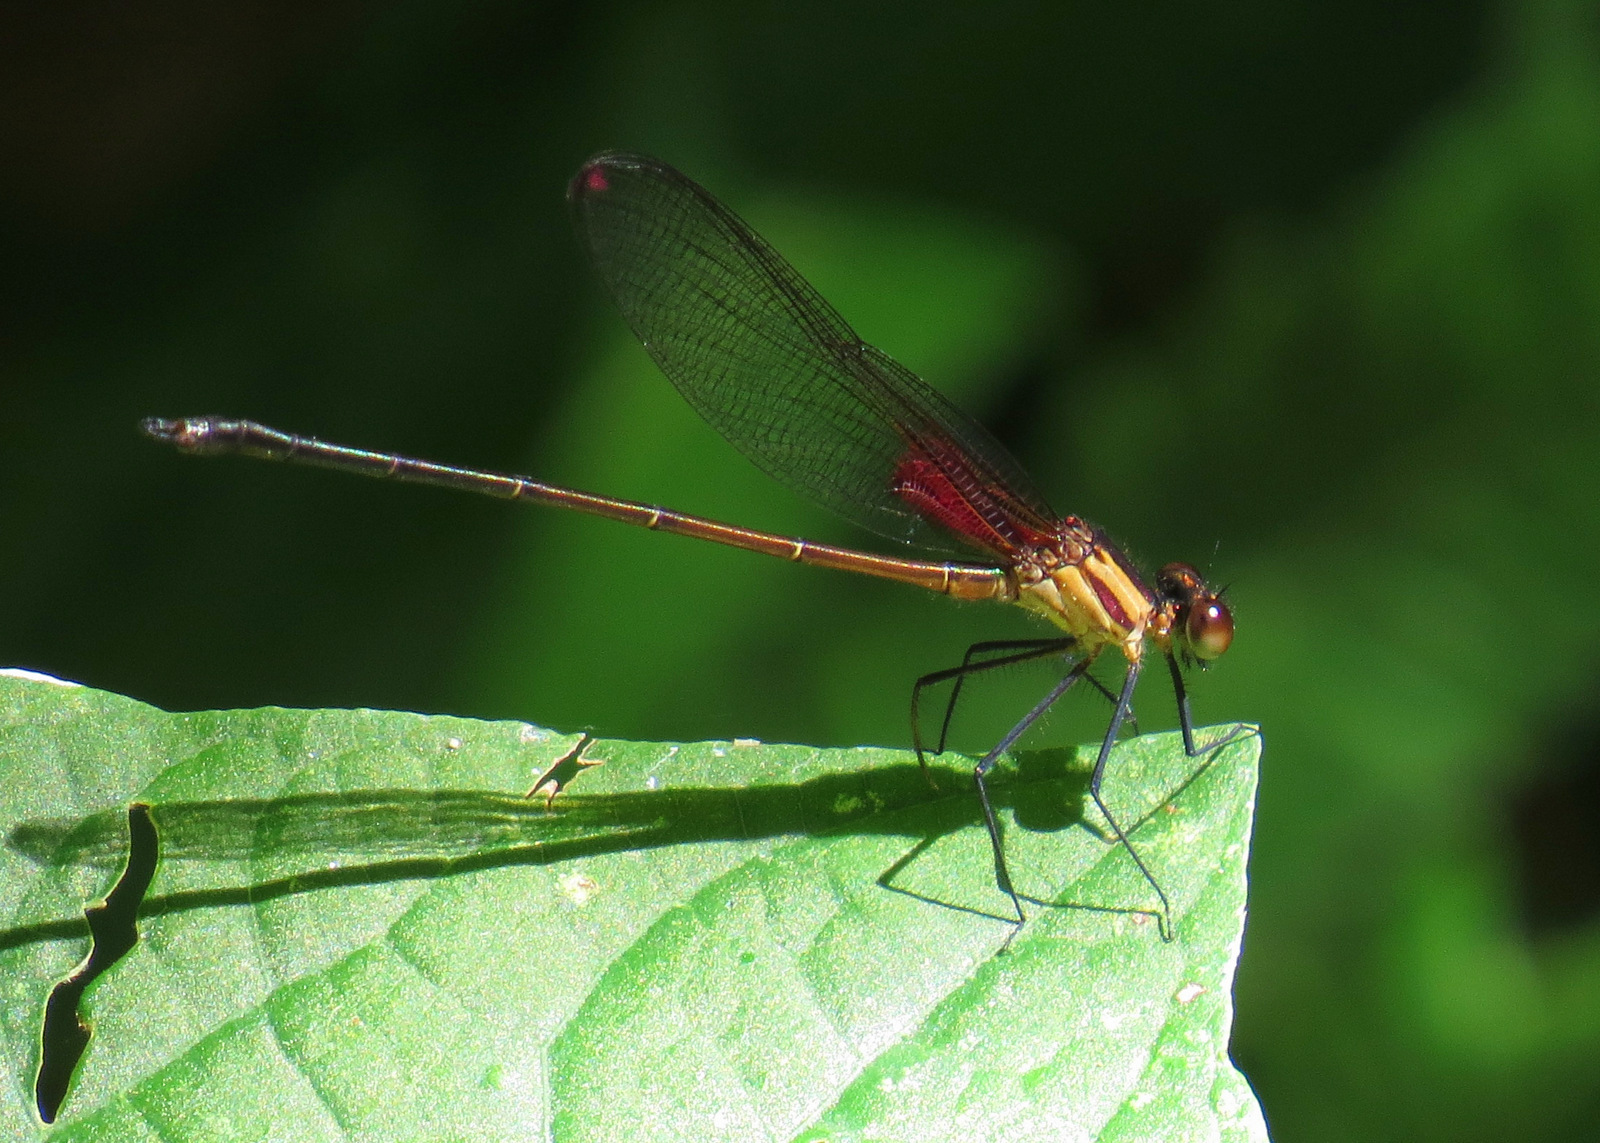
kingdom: Animalia
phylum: Arthropoda
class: Insecta
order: Odonata
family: Calopterygidae
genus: Hetaerina
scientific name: Hetaerina occisa
